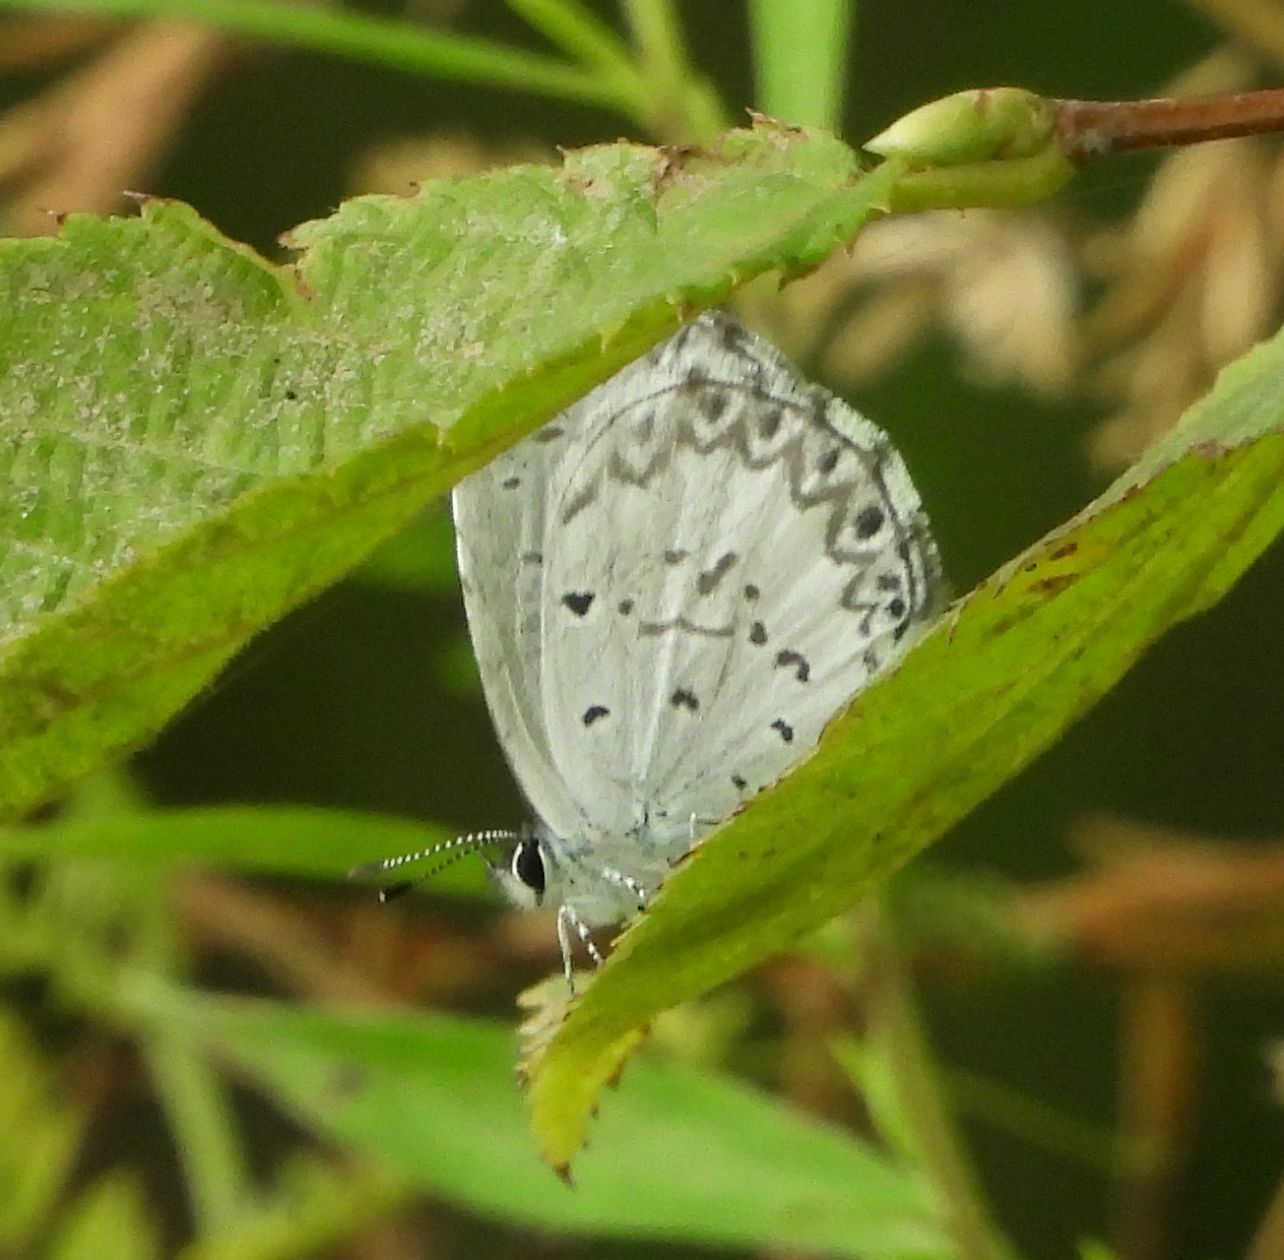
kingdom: Animalia
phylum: Arthropoda
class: Insecta
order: Lepidoptera
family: Lycaenidae
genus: Celastrina
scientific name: Celastrina lucia
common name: Lucia azure
